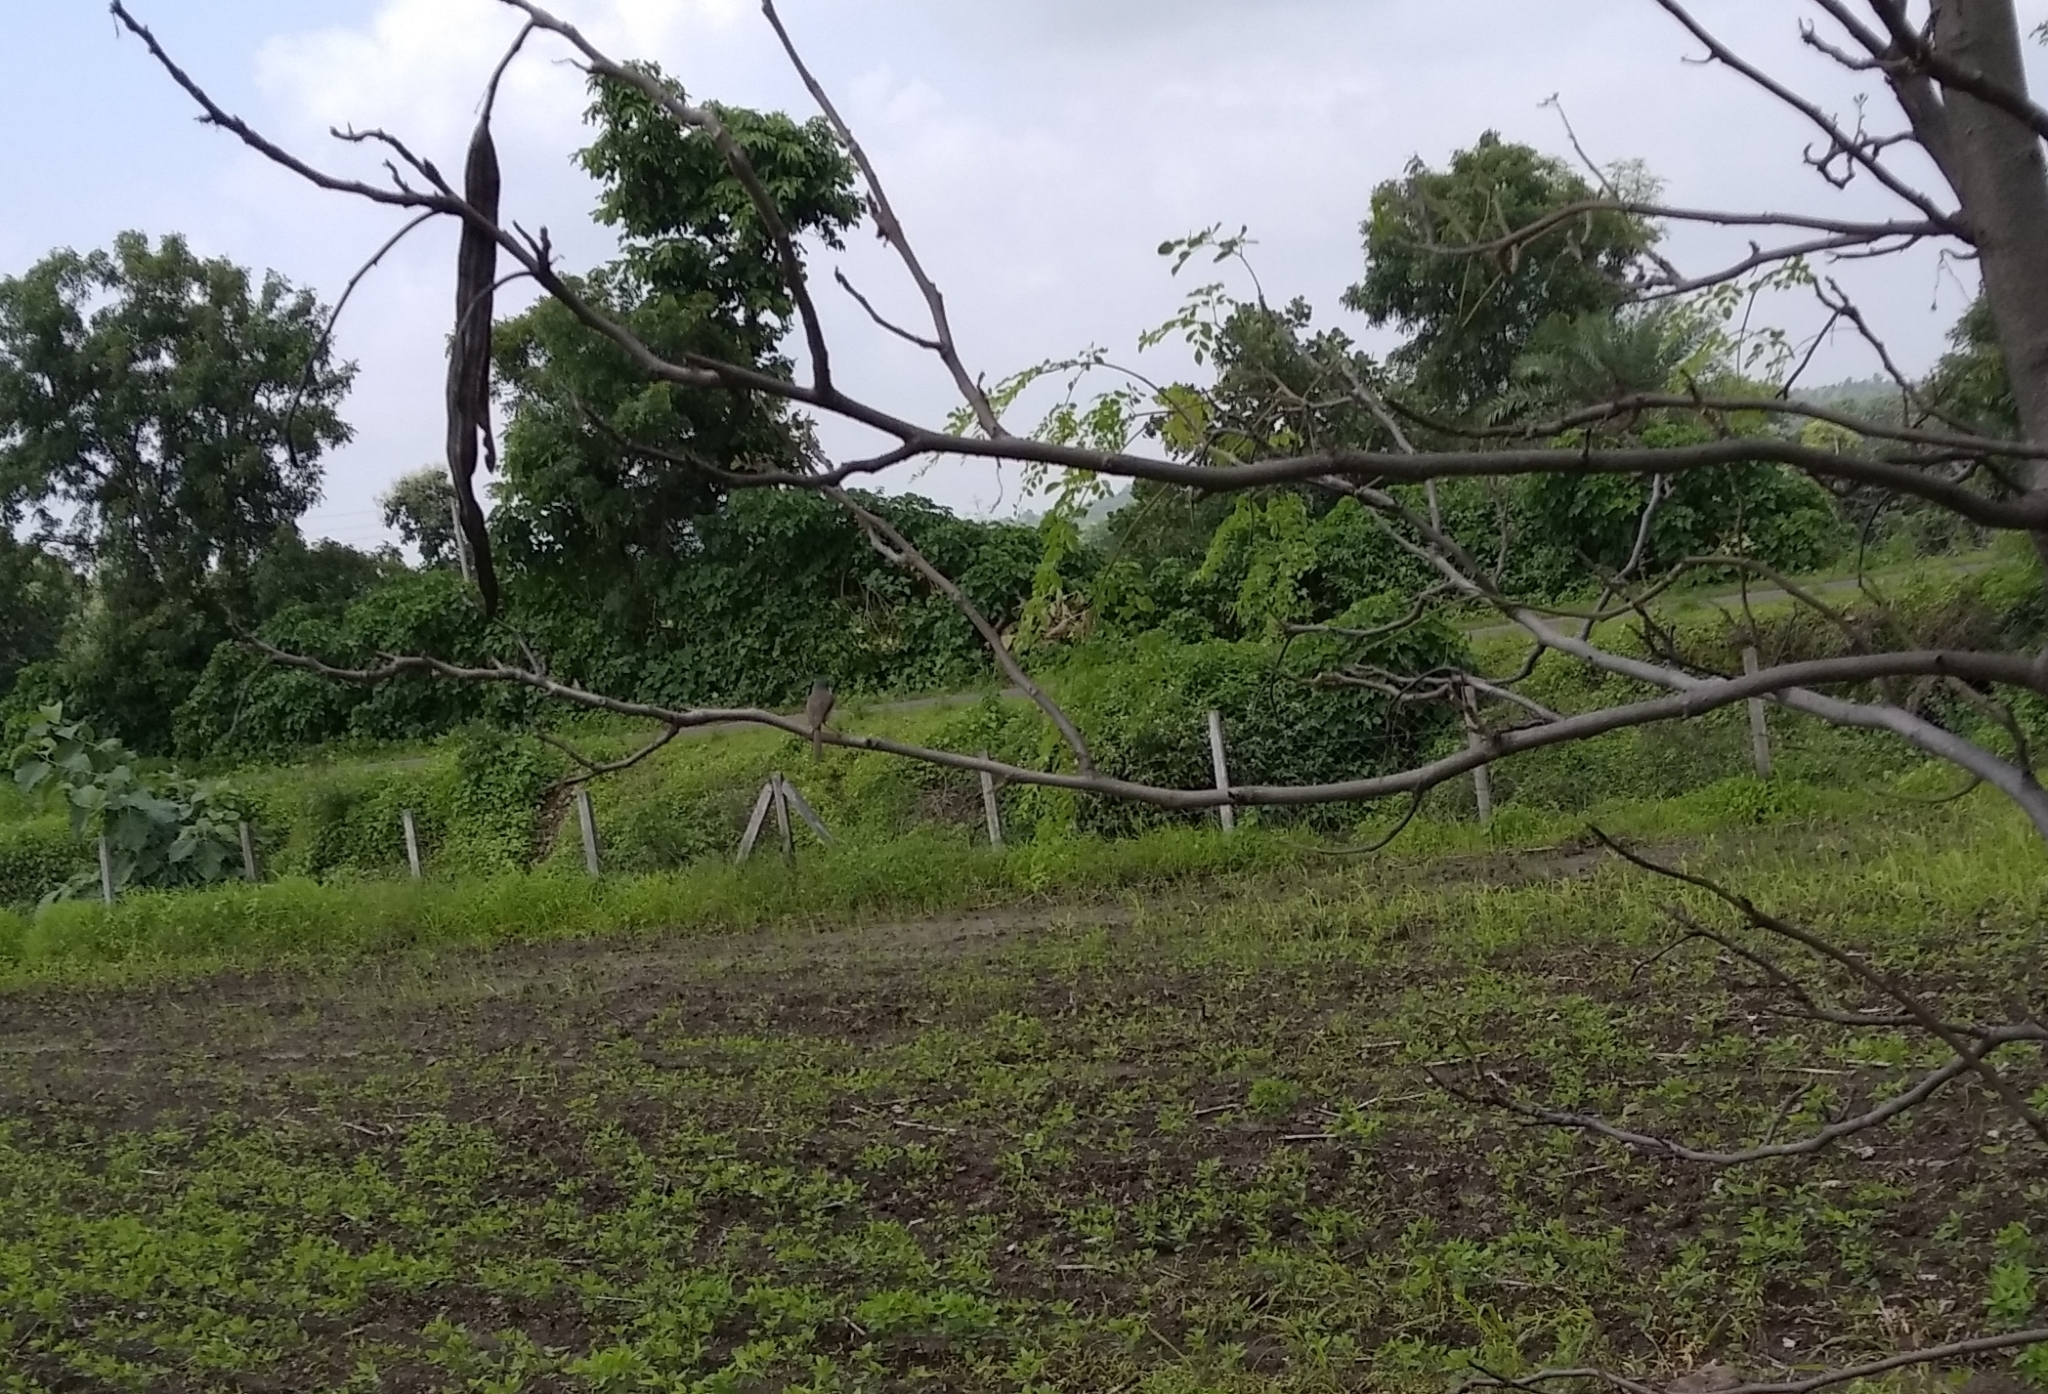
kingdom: Animalia
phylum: Chordata
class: Aves
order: Passeriformes
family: Cisticolidae
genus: Prinia
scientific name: Prinia hodgsonii
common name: Grey-breasted prinia
